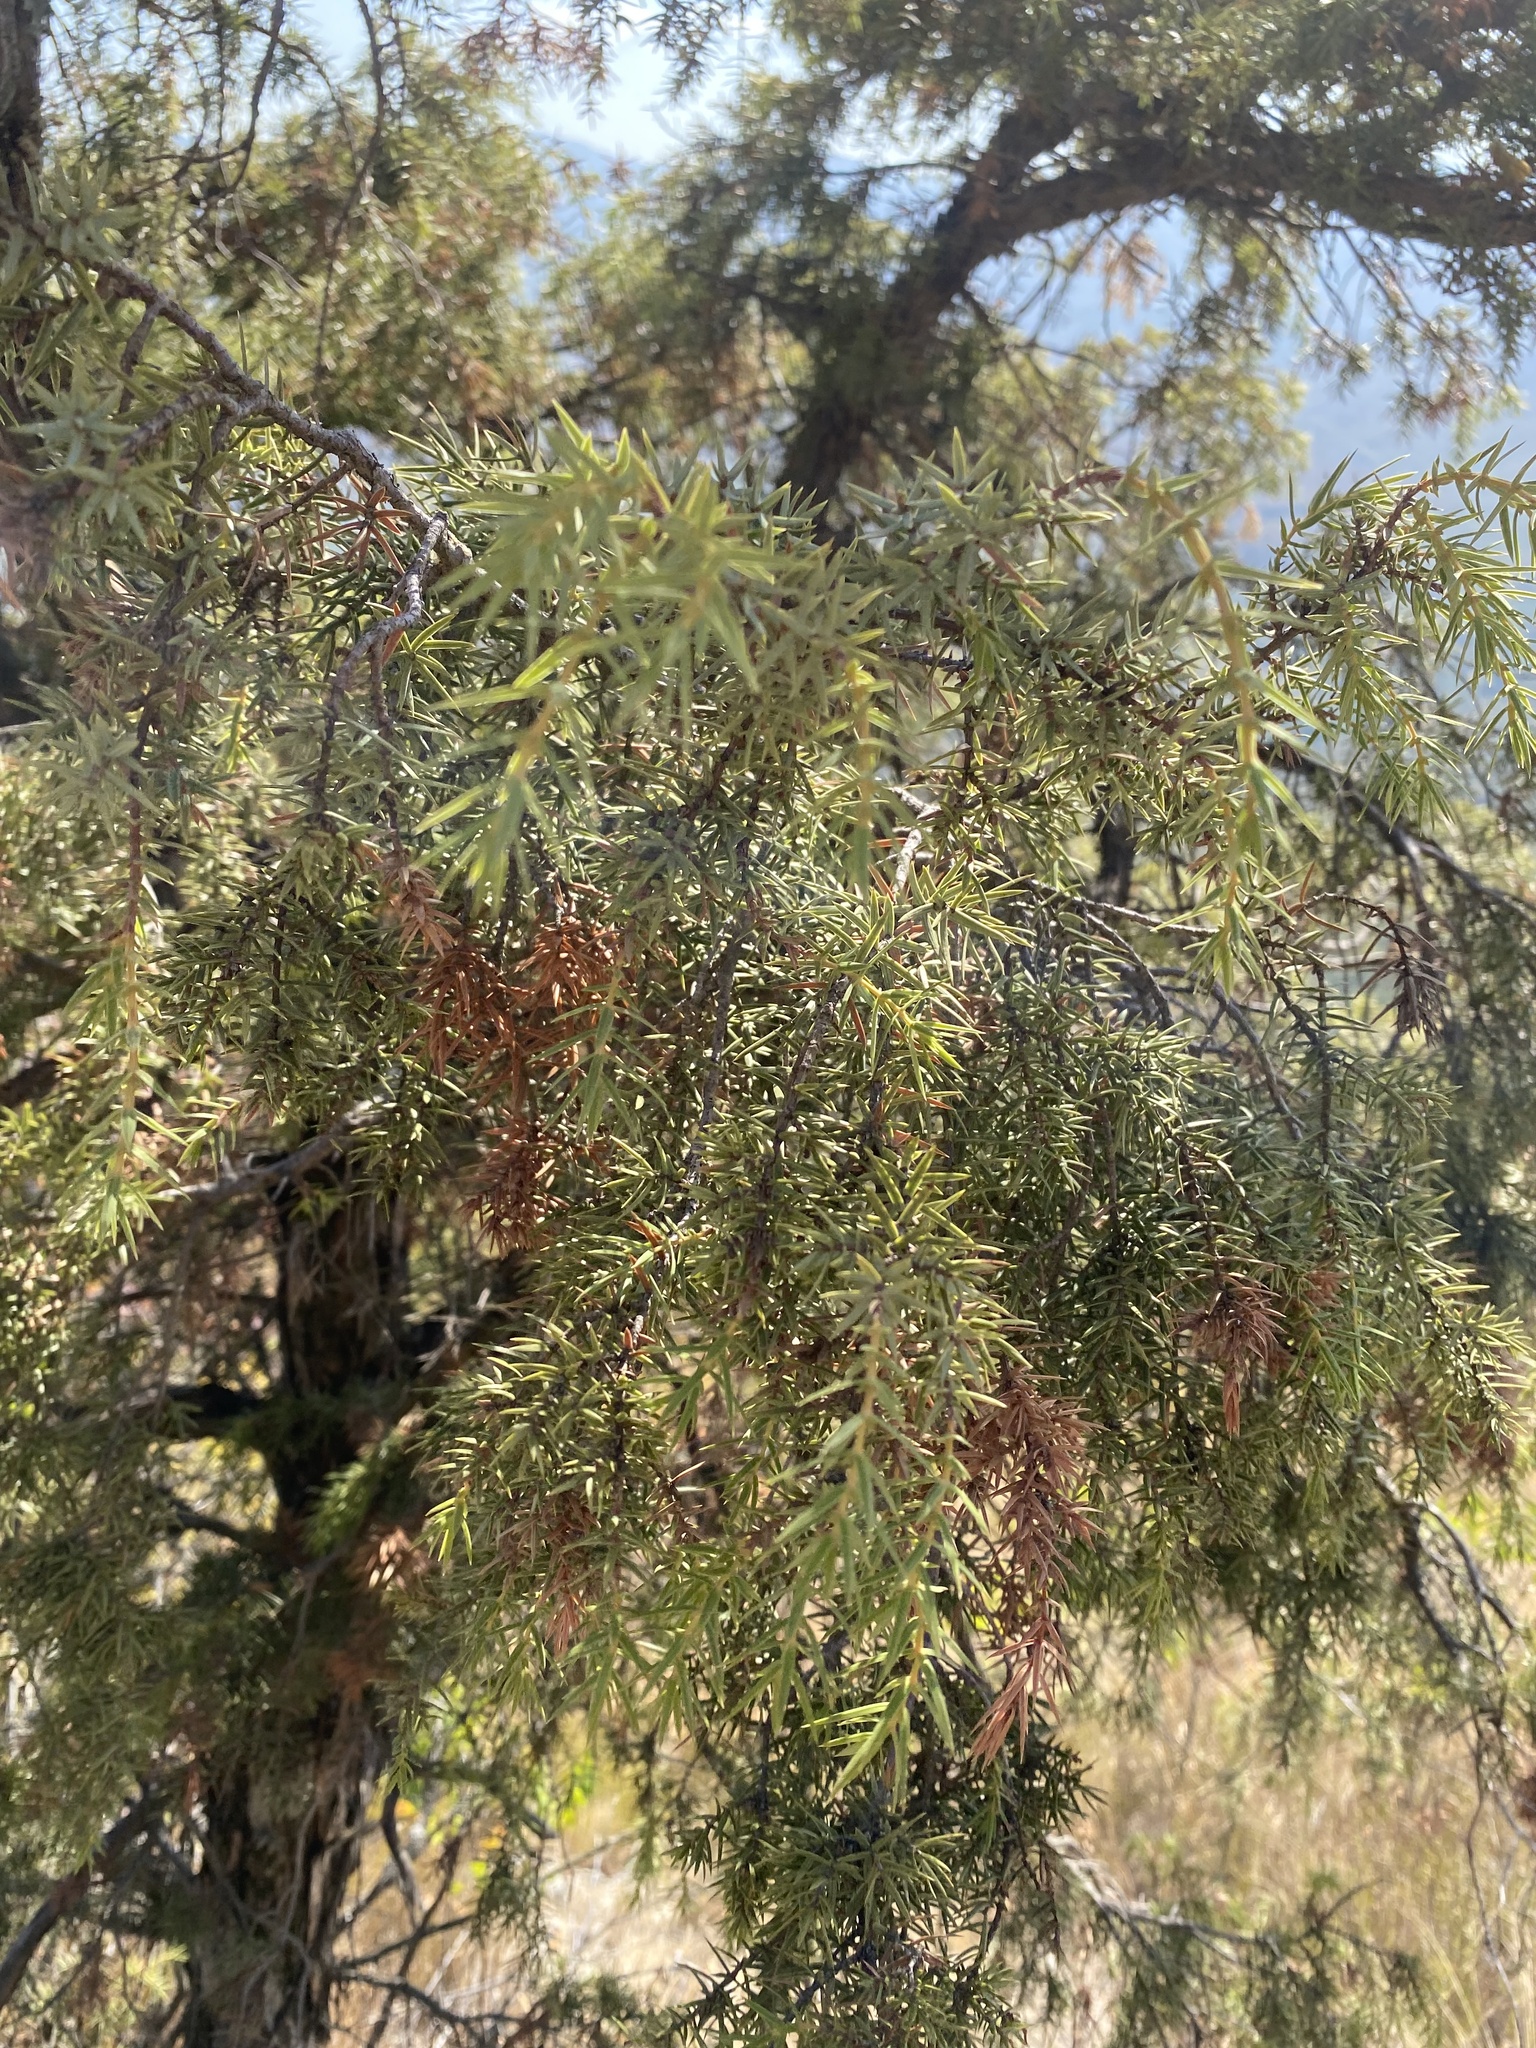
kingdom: Plantae
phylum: Tracheophyta
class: Pinopsida
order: Pinales
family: Cupressaceae
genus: Juniperus
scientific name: Juniperus oxycedrus
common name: Prickly juniper
